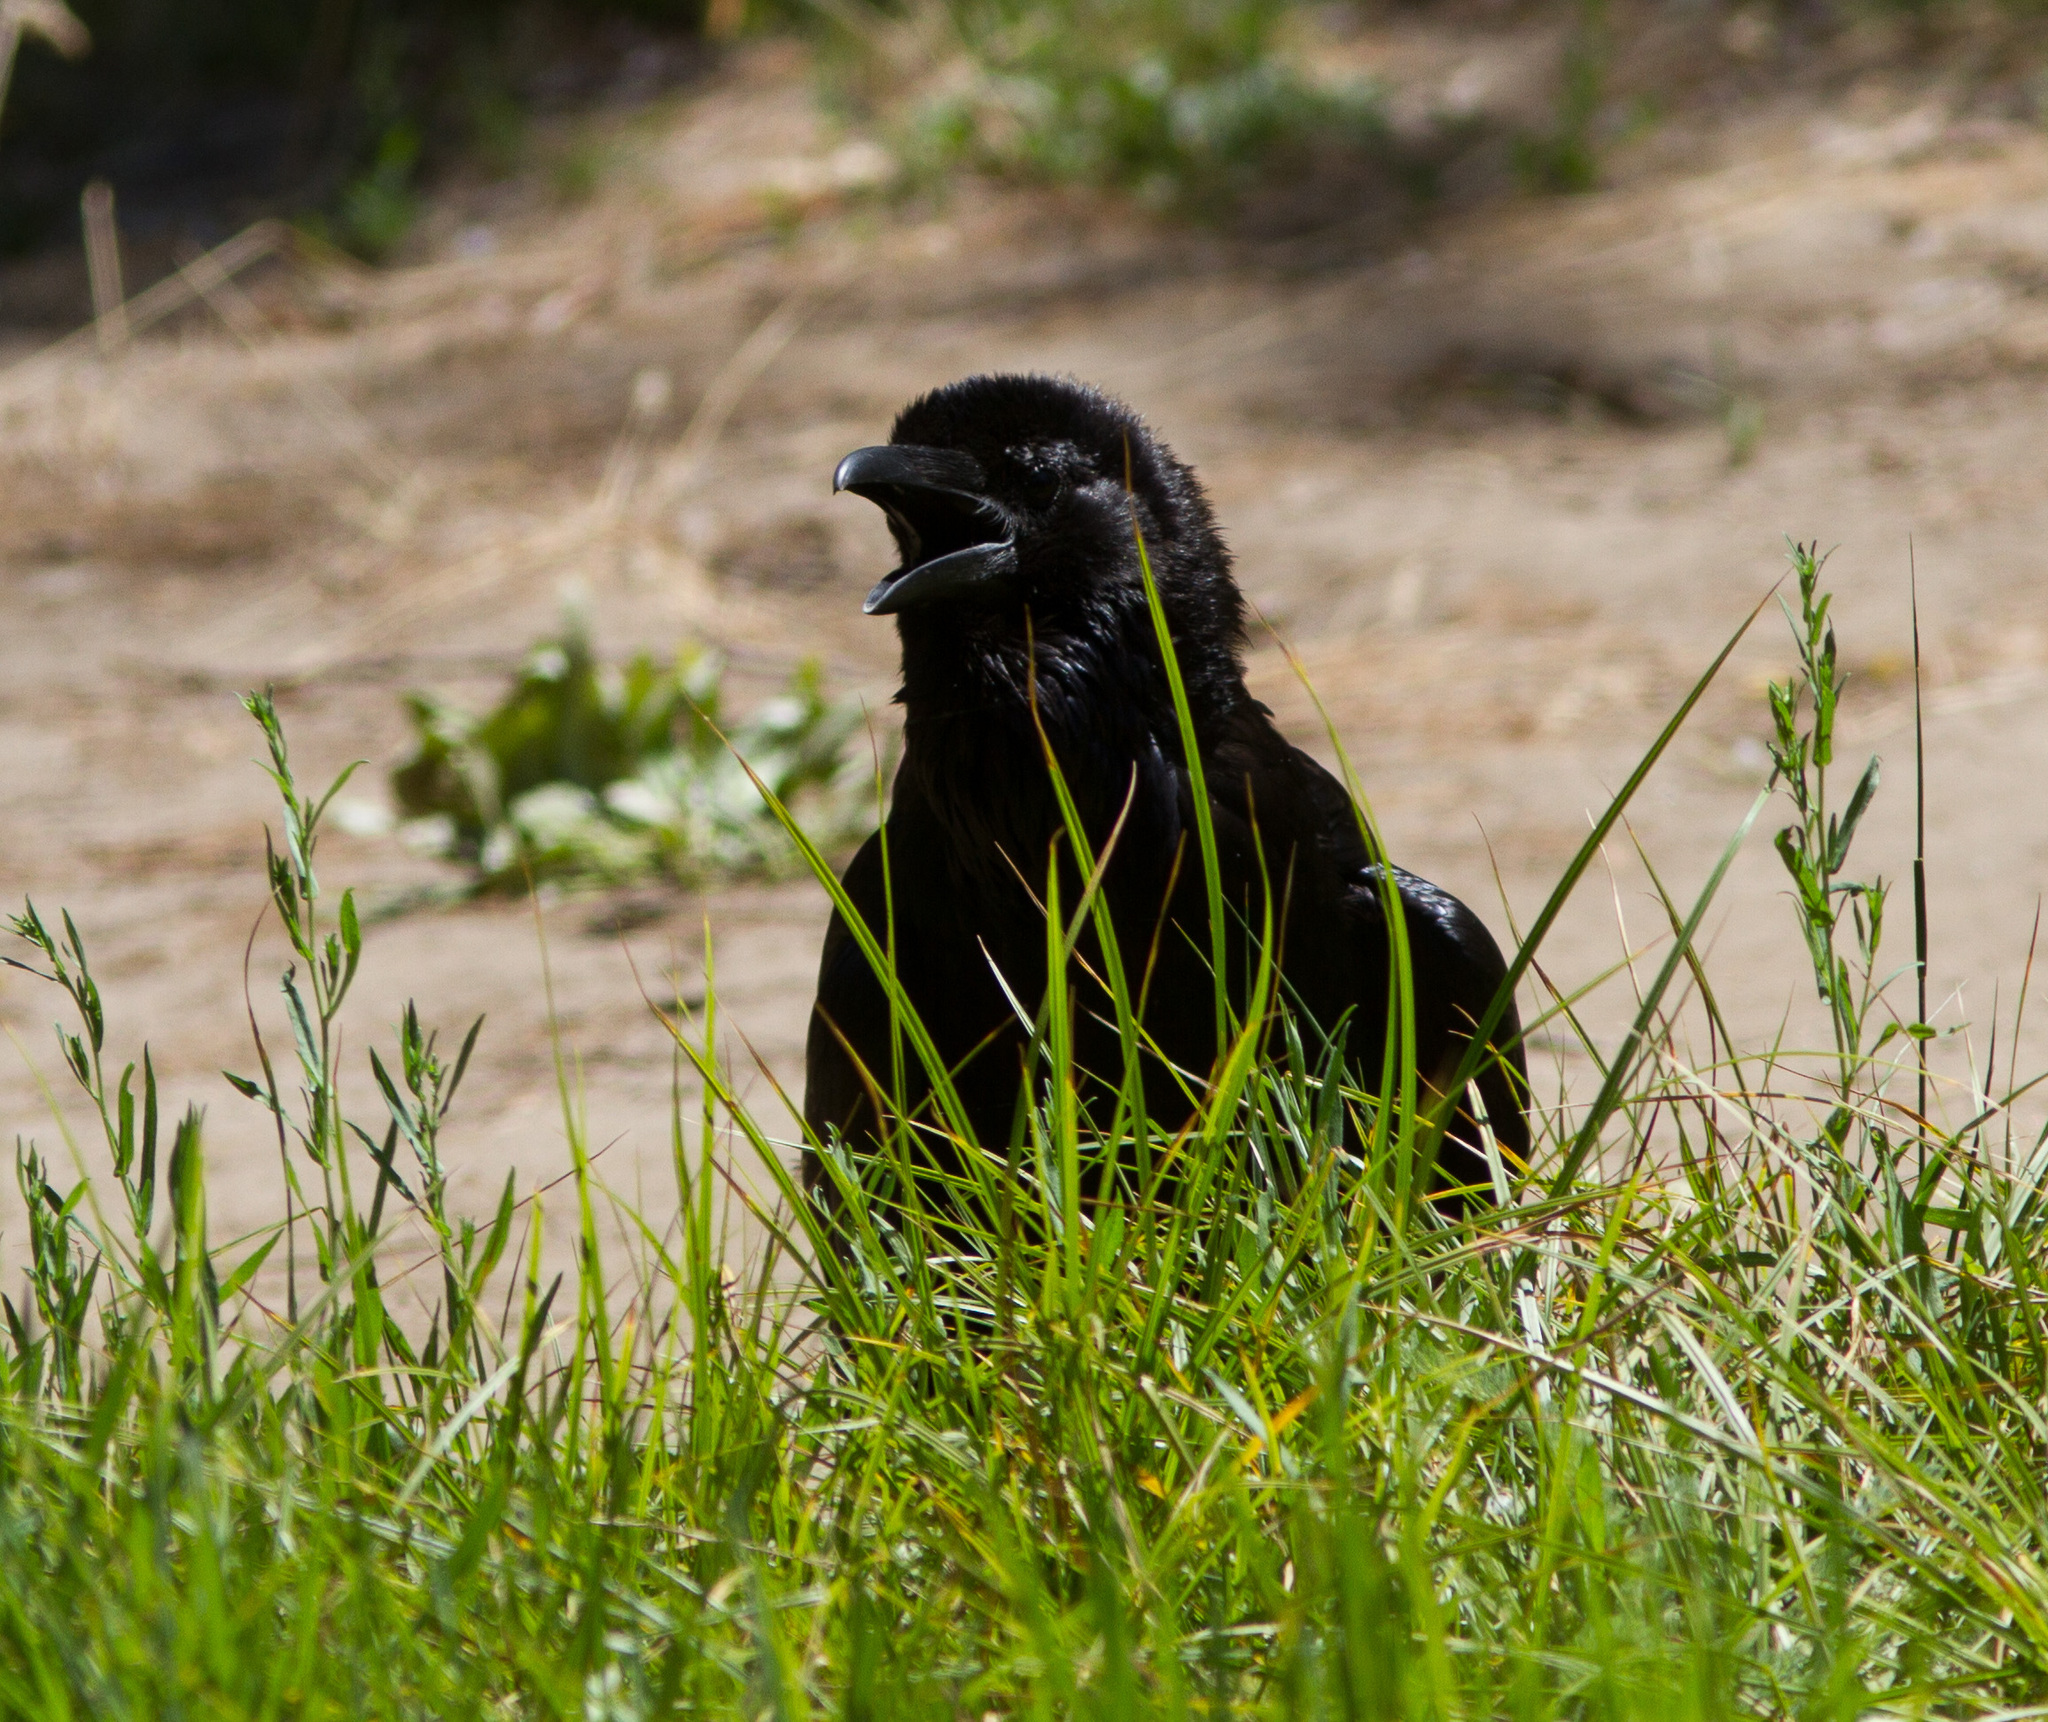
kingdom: Animalia
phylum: Chordata
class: Aves
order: Passeriformes
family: Corvidae
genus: Corvus
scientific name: Corvus corax
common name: Common raven
